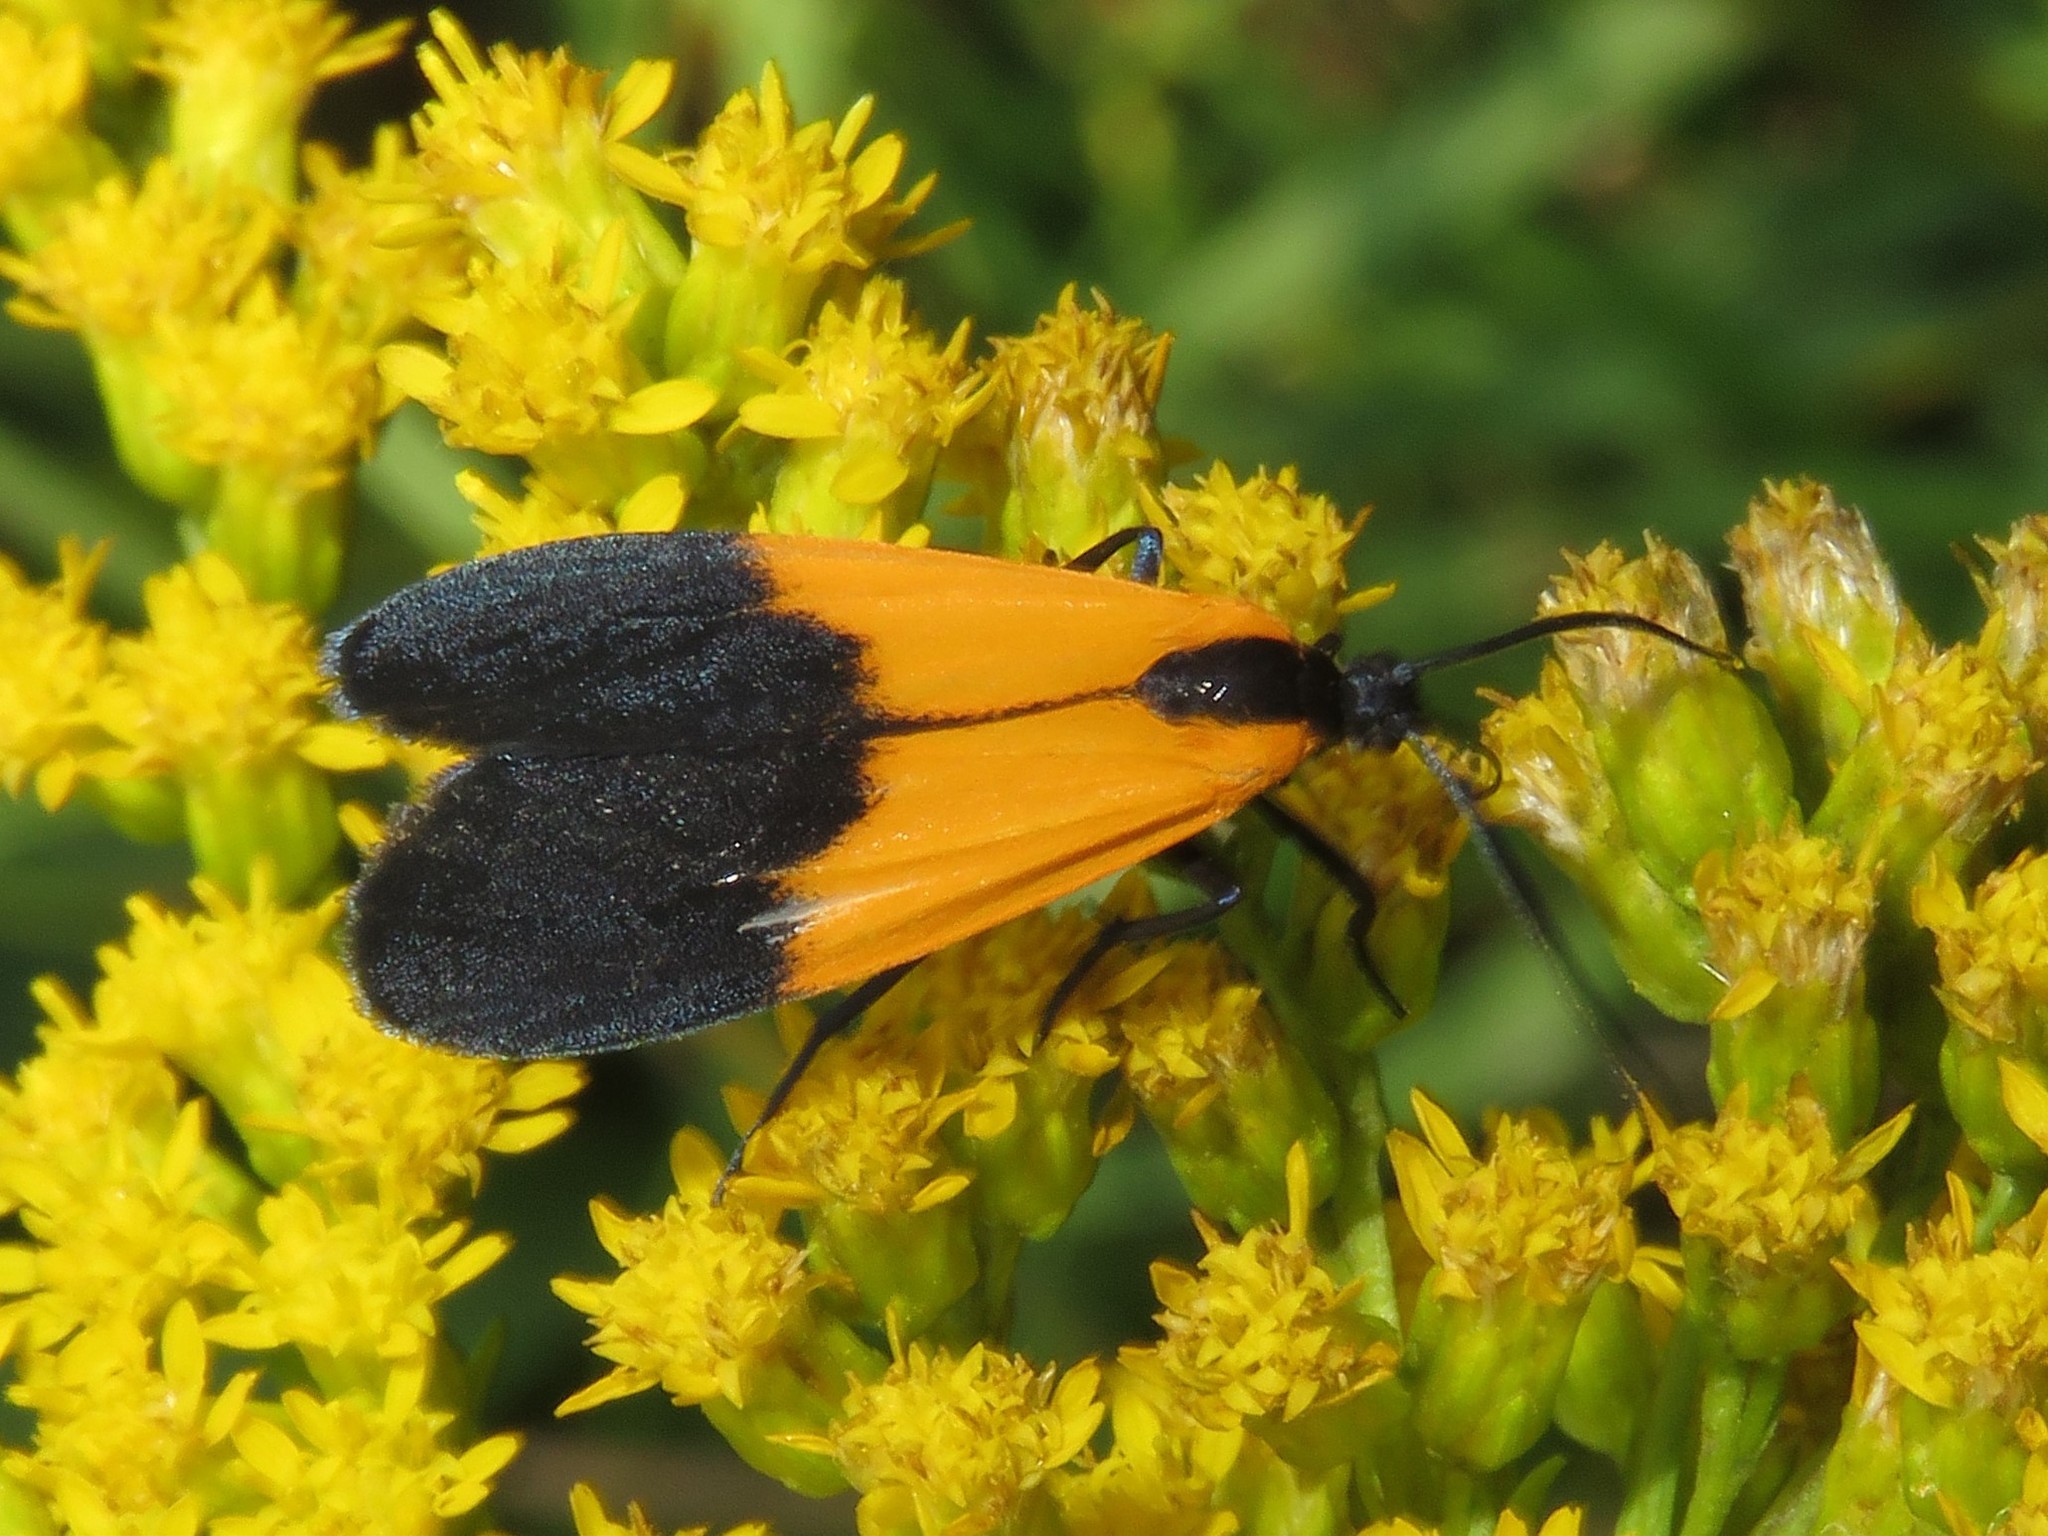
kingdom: Animalia
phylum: Arthropoda
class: Insecta
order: Lepidoptera
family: Erebidae
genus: Lycomorpha
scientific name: Lycomorpha pholus
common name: Black-and-yellow lichen moth
